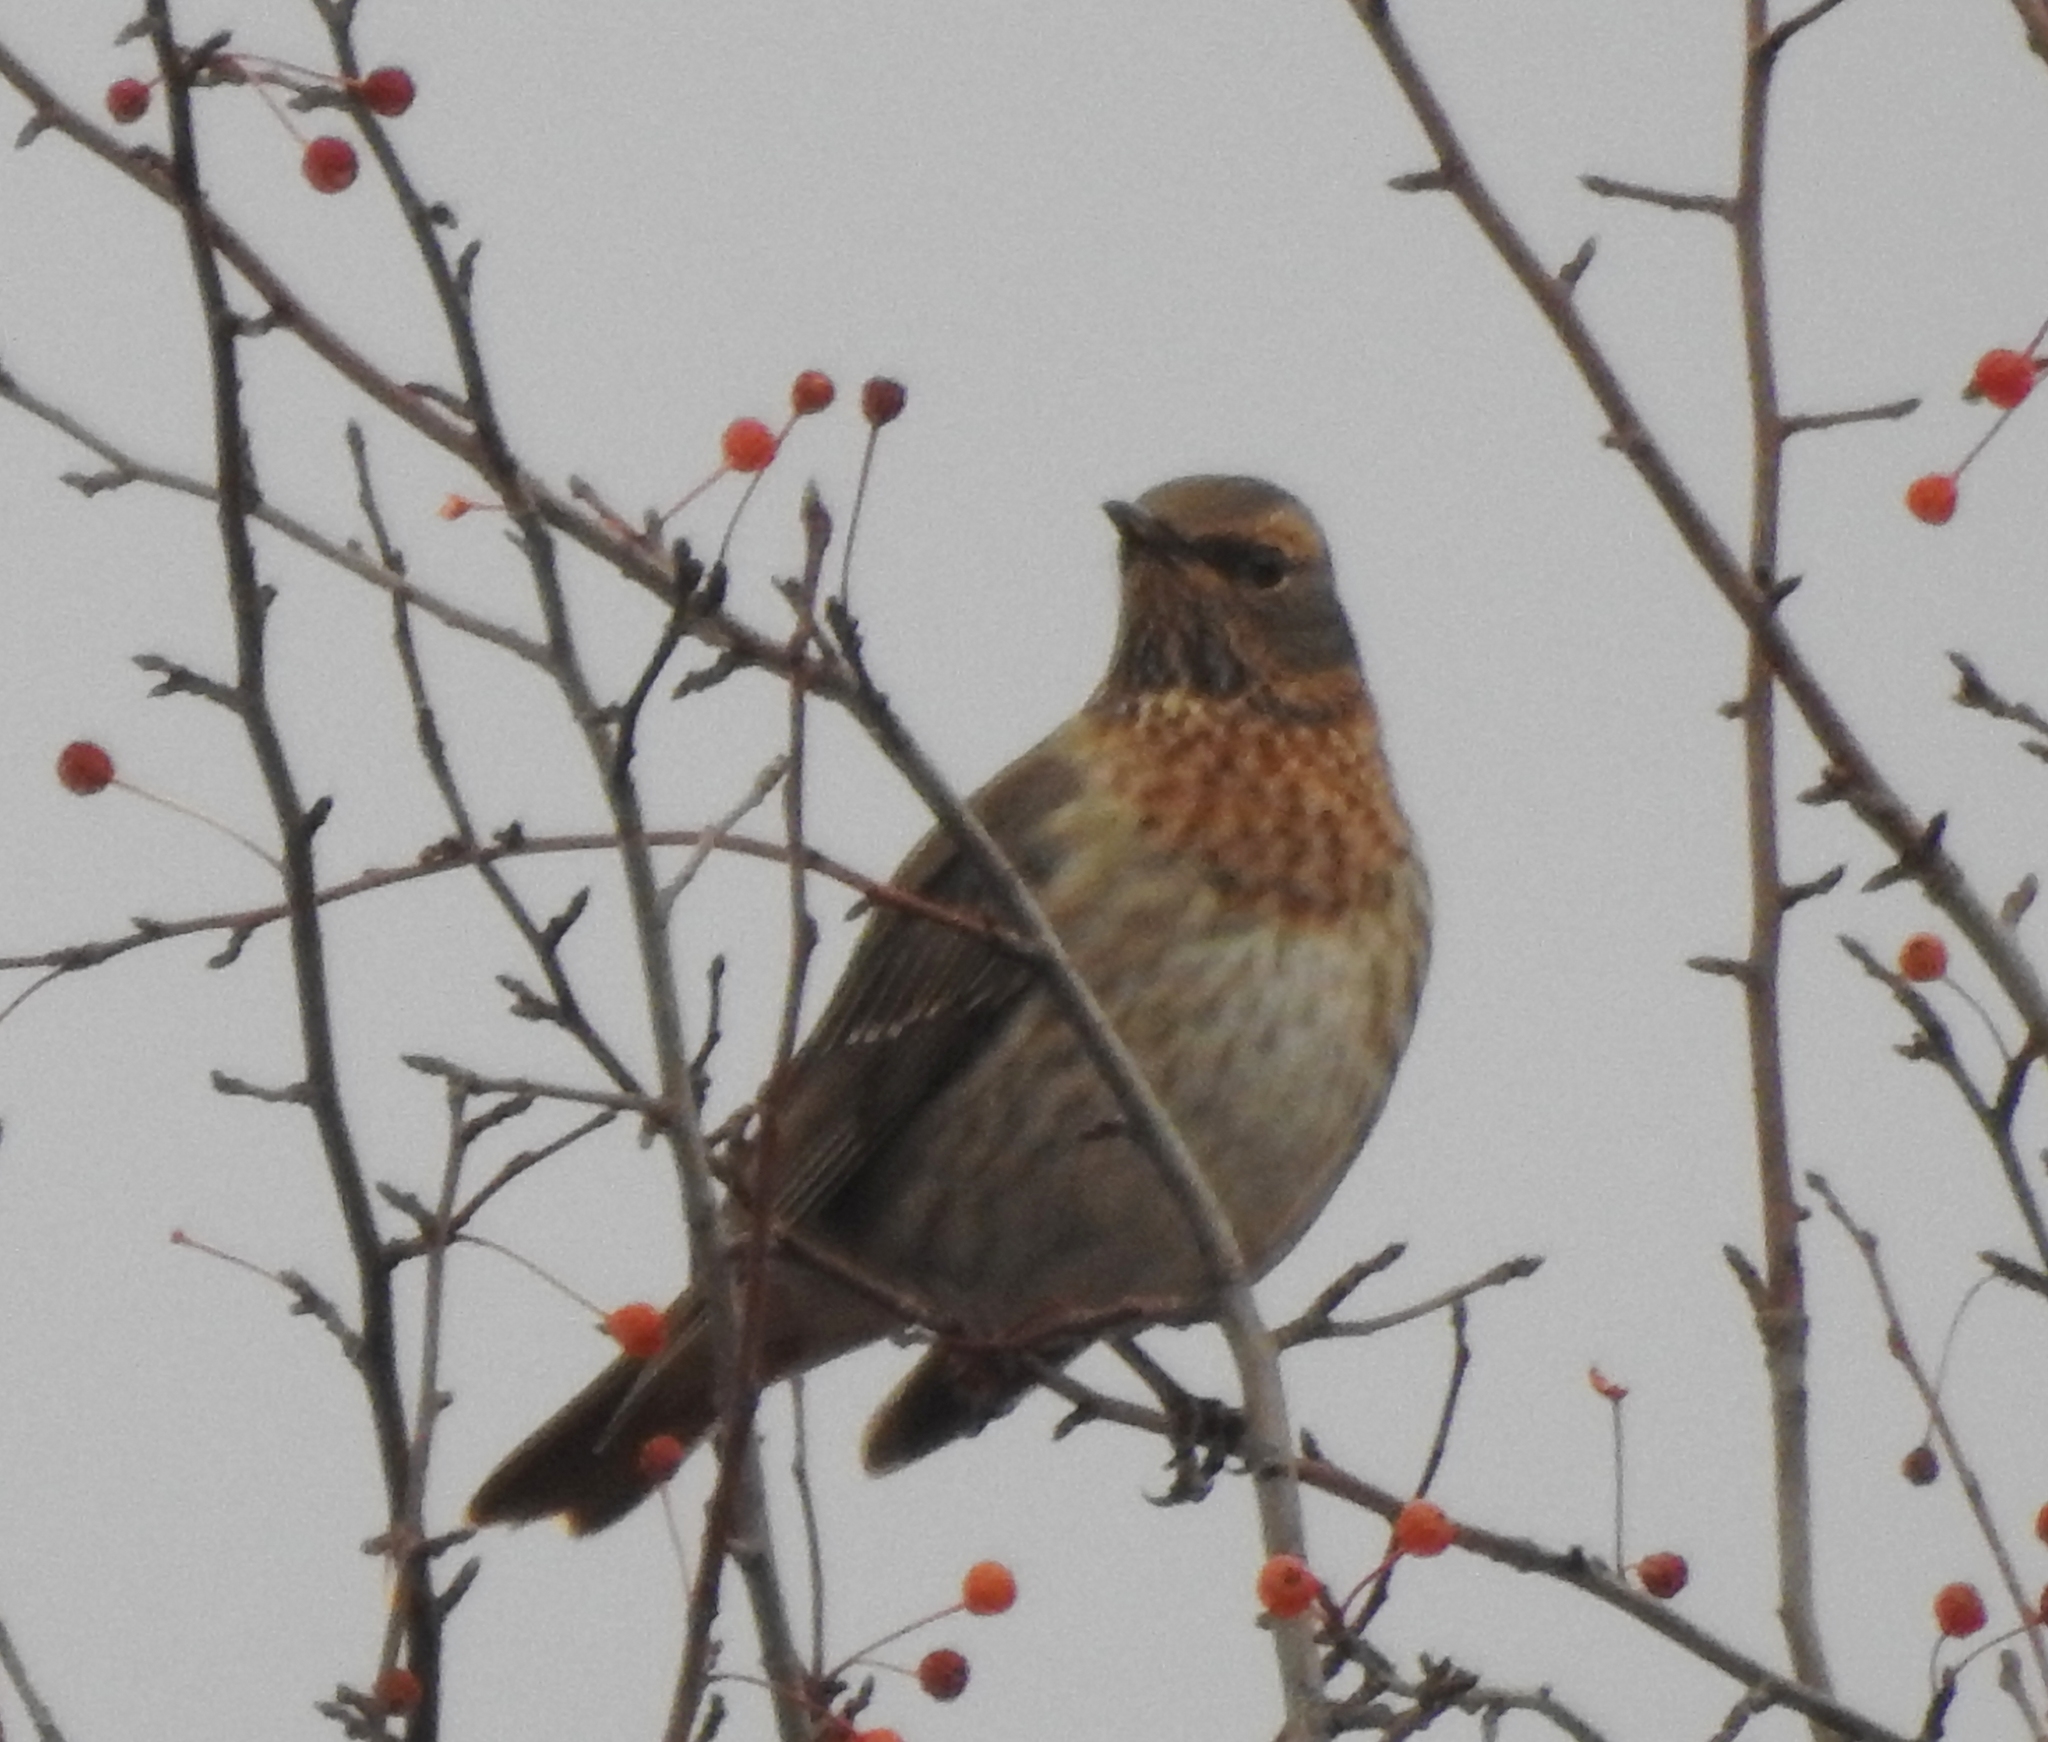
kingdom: Animalia
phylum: Chordata
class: Aves
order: Passeriformes
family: Turdidae
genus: Turdus
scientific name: Turdus naumanni
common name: Naumann's thrush
